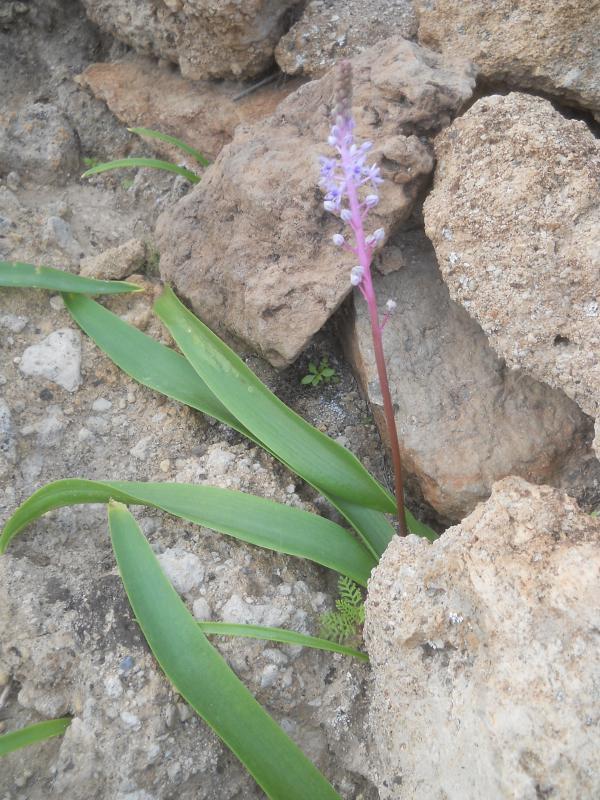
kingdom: Plantae
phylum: Tracheophyta
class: Liliopsida
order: Asparagales
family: Asparagaceae
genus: Scilla
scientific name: Scilla haemorrhoidalis
